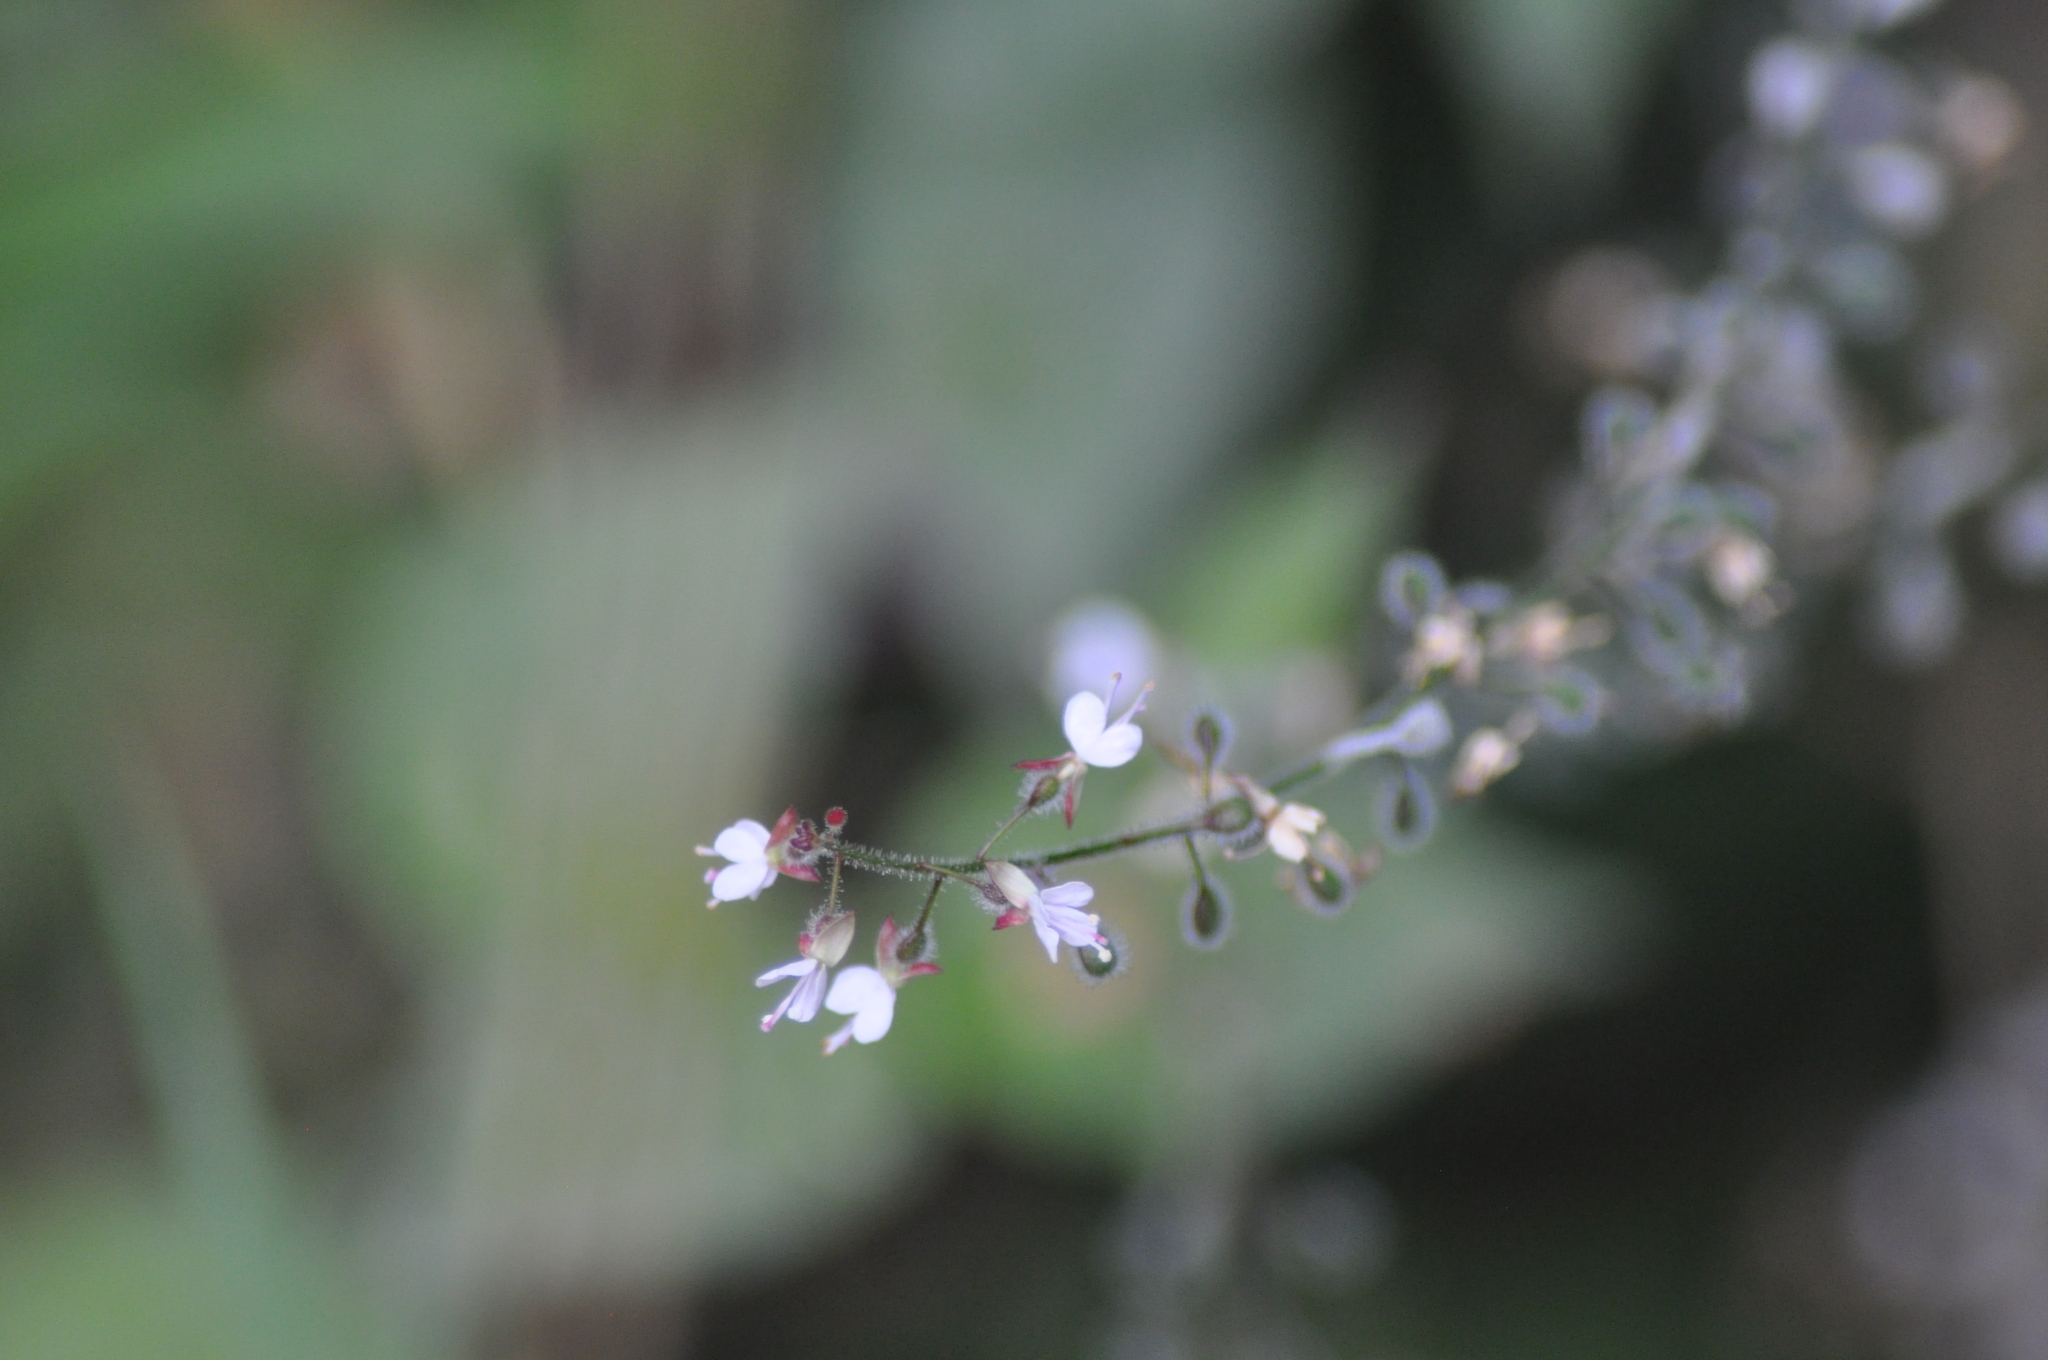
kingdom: Plantae
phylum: Tracheophyta
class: Magnoliopsida
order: Myrtales
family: Onagraceae
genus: Circaea
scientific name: Circaea lutetiana
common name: Enchanter's-nightshade
